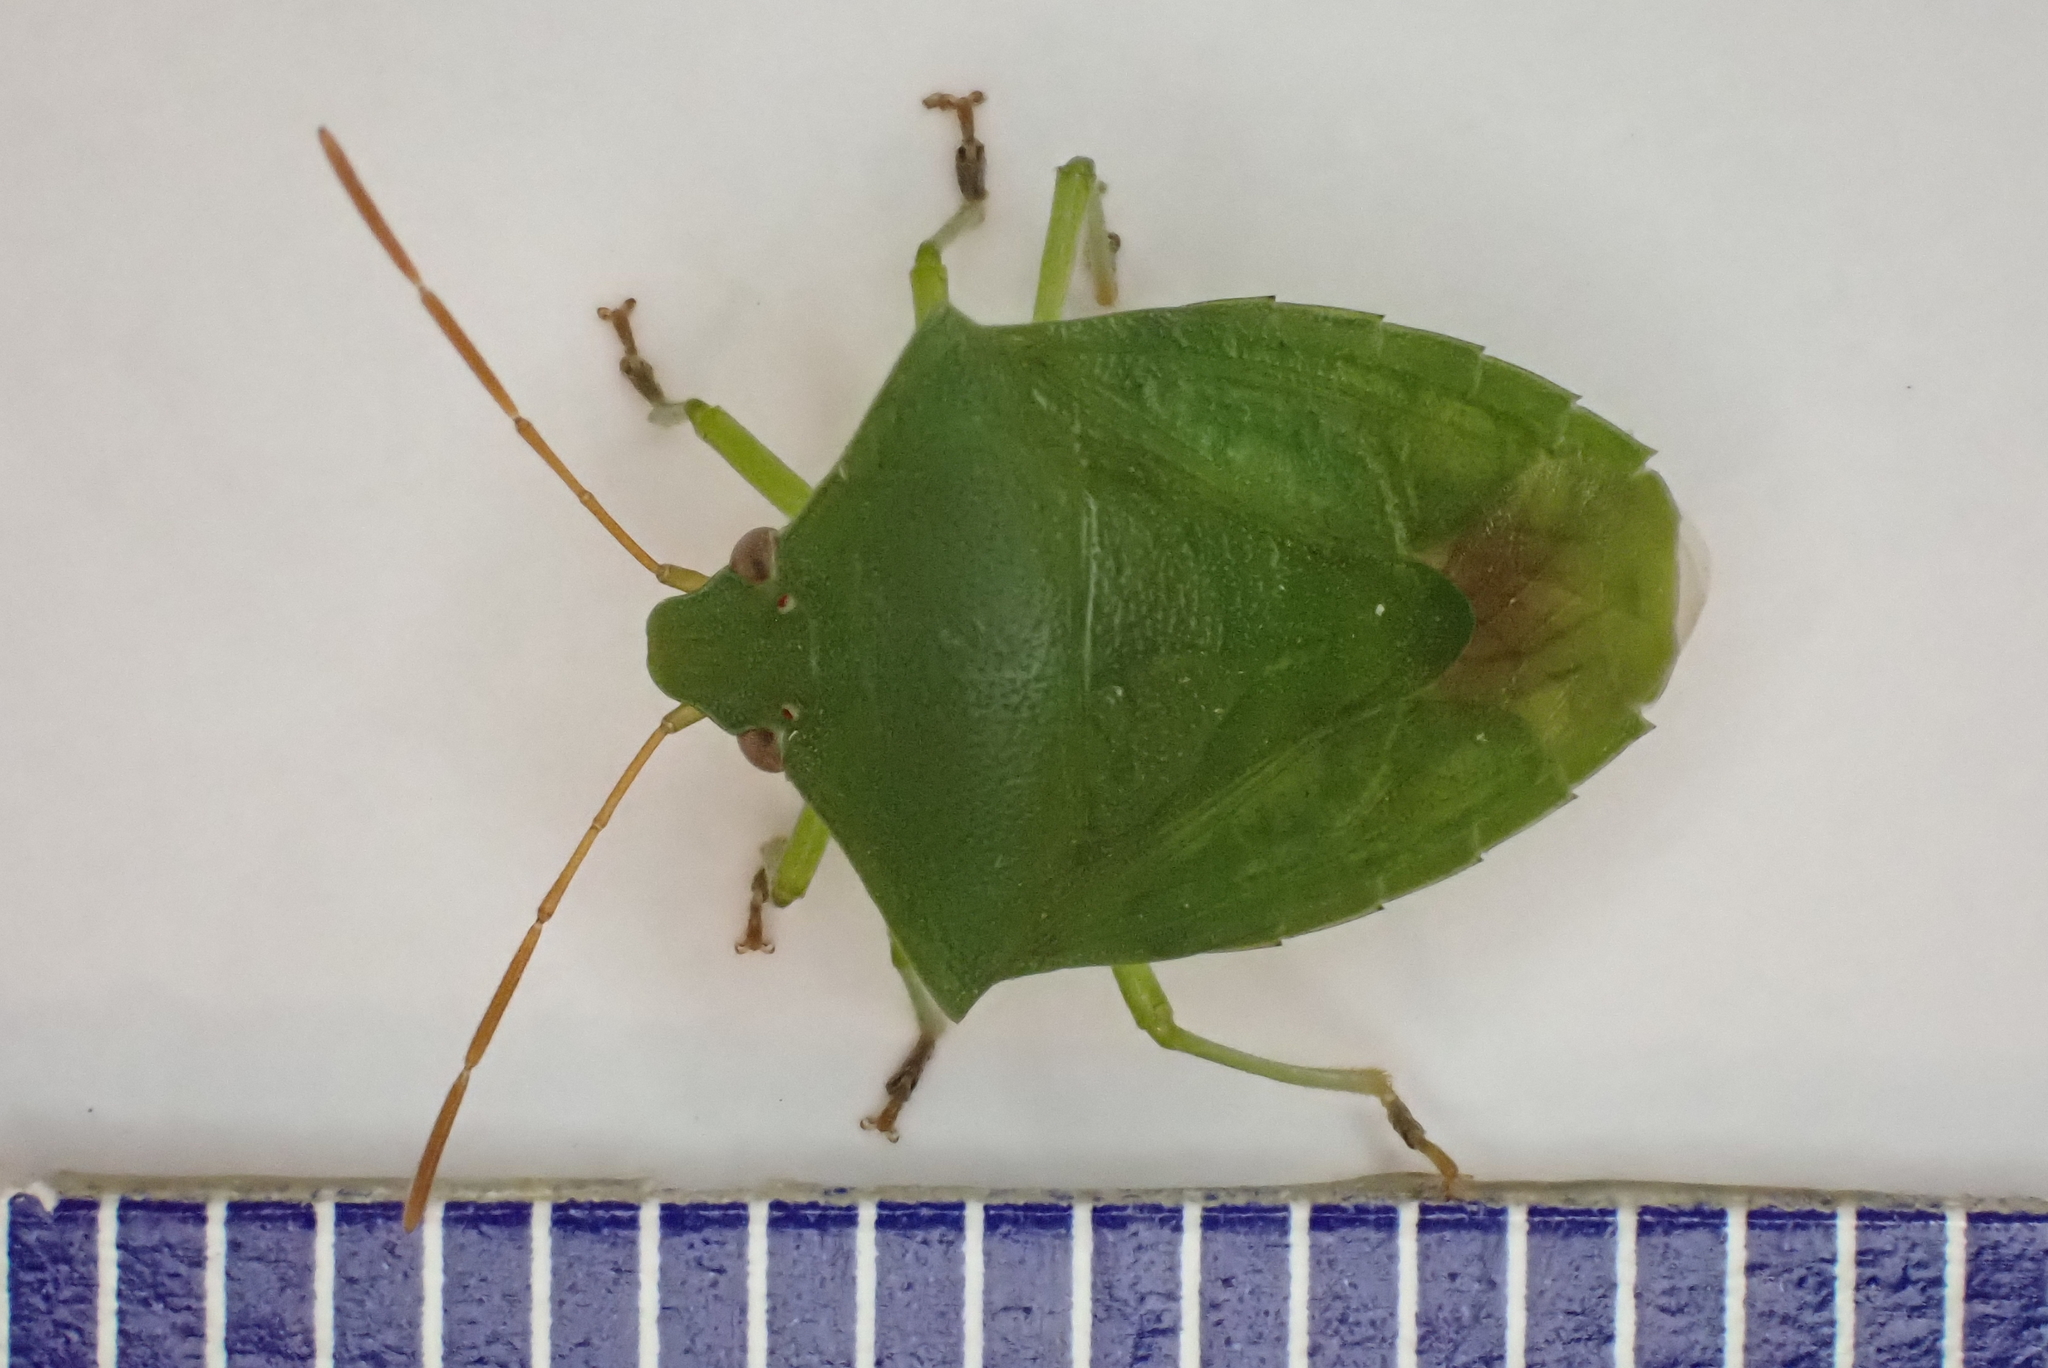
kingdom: Animalia
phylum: Arthropoda
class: Insecta
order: Hemiptera
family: Pentatomidae
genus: Cuspicona
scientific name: Cuspicona simplex
